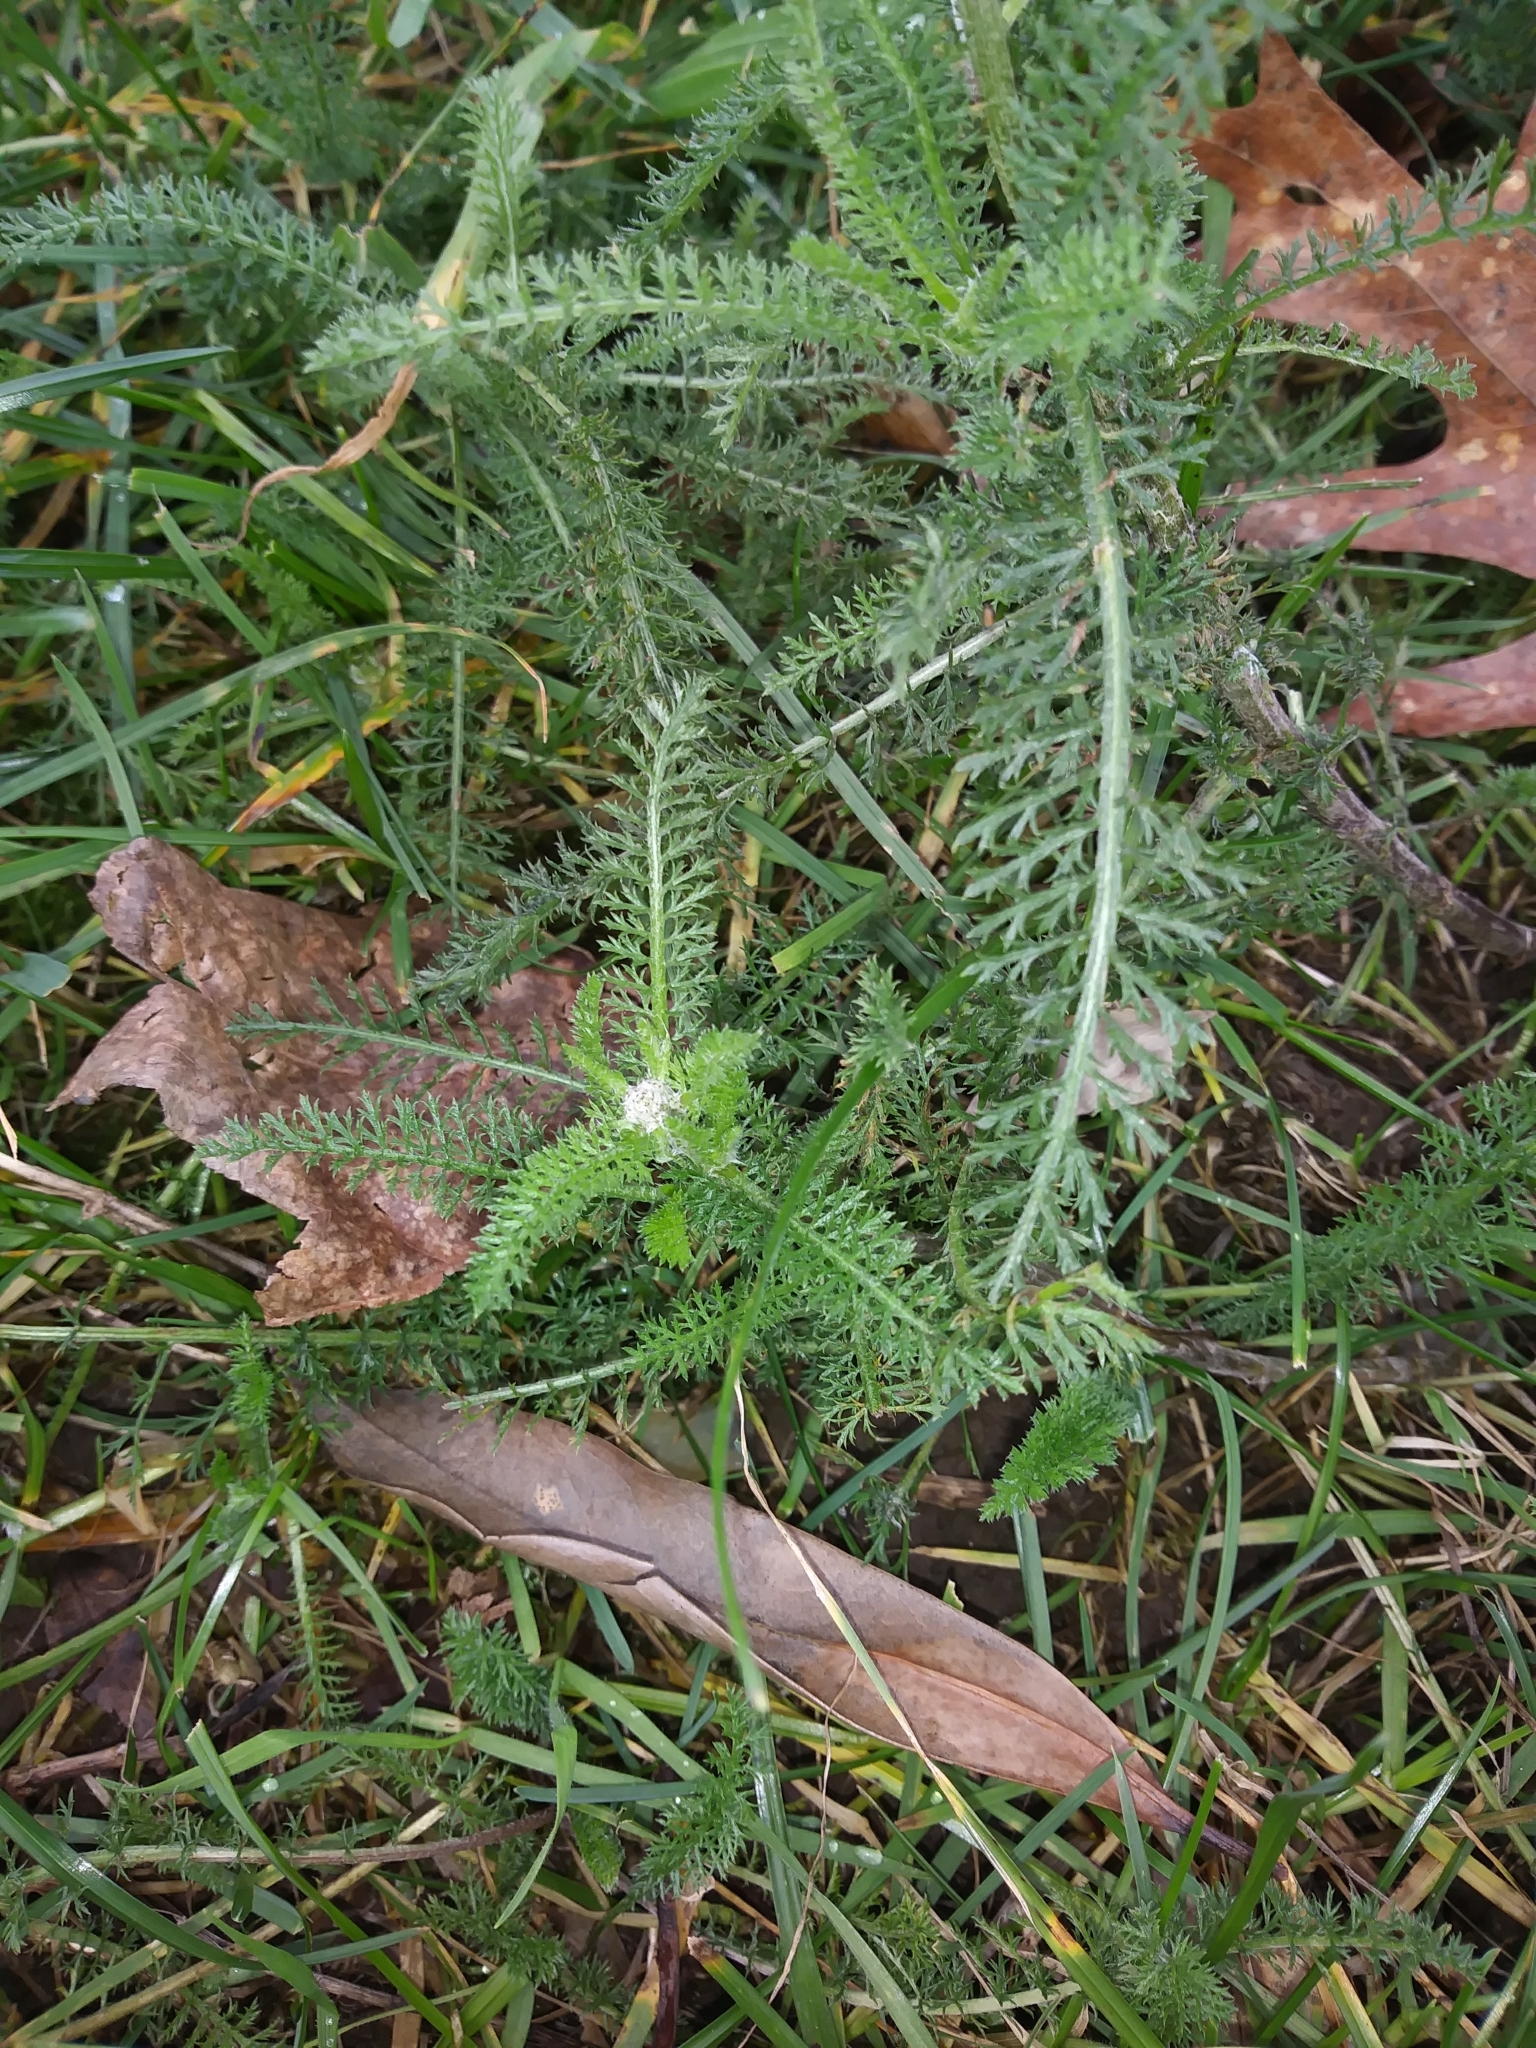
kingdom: Plantae
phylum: Tracheophyta
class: Magnoliopsida
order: Asterales
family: Asteraceae
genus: Achillea
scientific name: Achillea millefolium
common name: Yarrow
